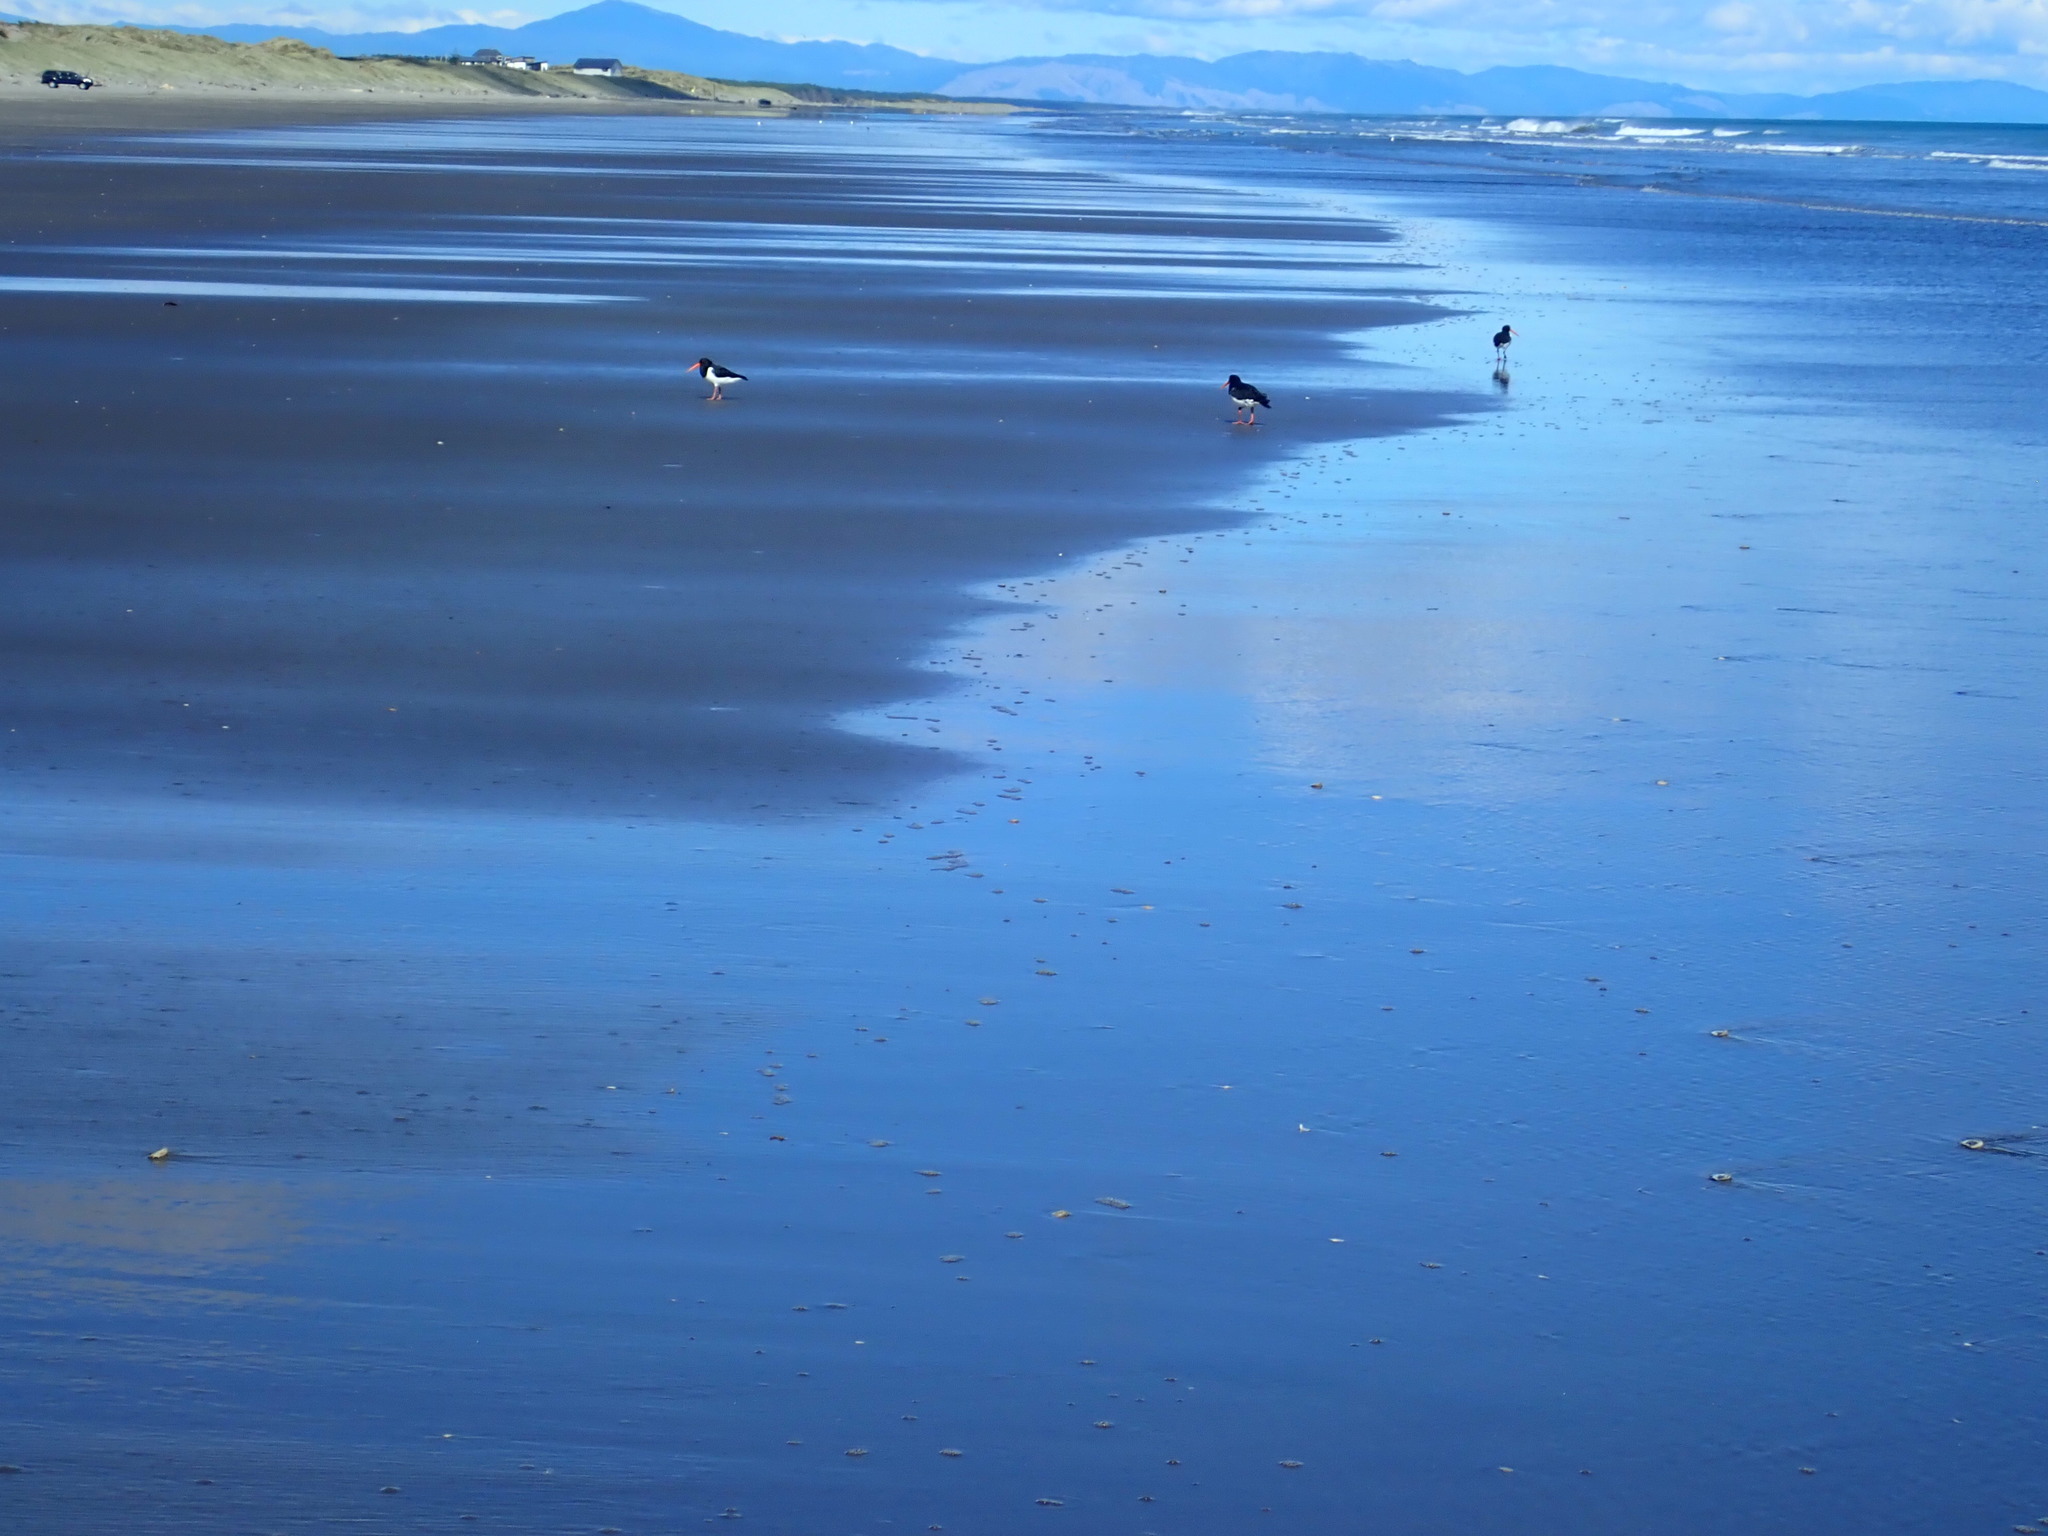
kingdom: Animalia
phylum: Chordata
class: Aves
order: Charadriiformes
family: Haematopodidae
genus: Haematopus
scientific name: Haematopus finschi
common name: South island oystercatcher
